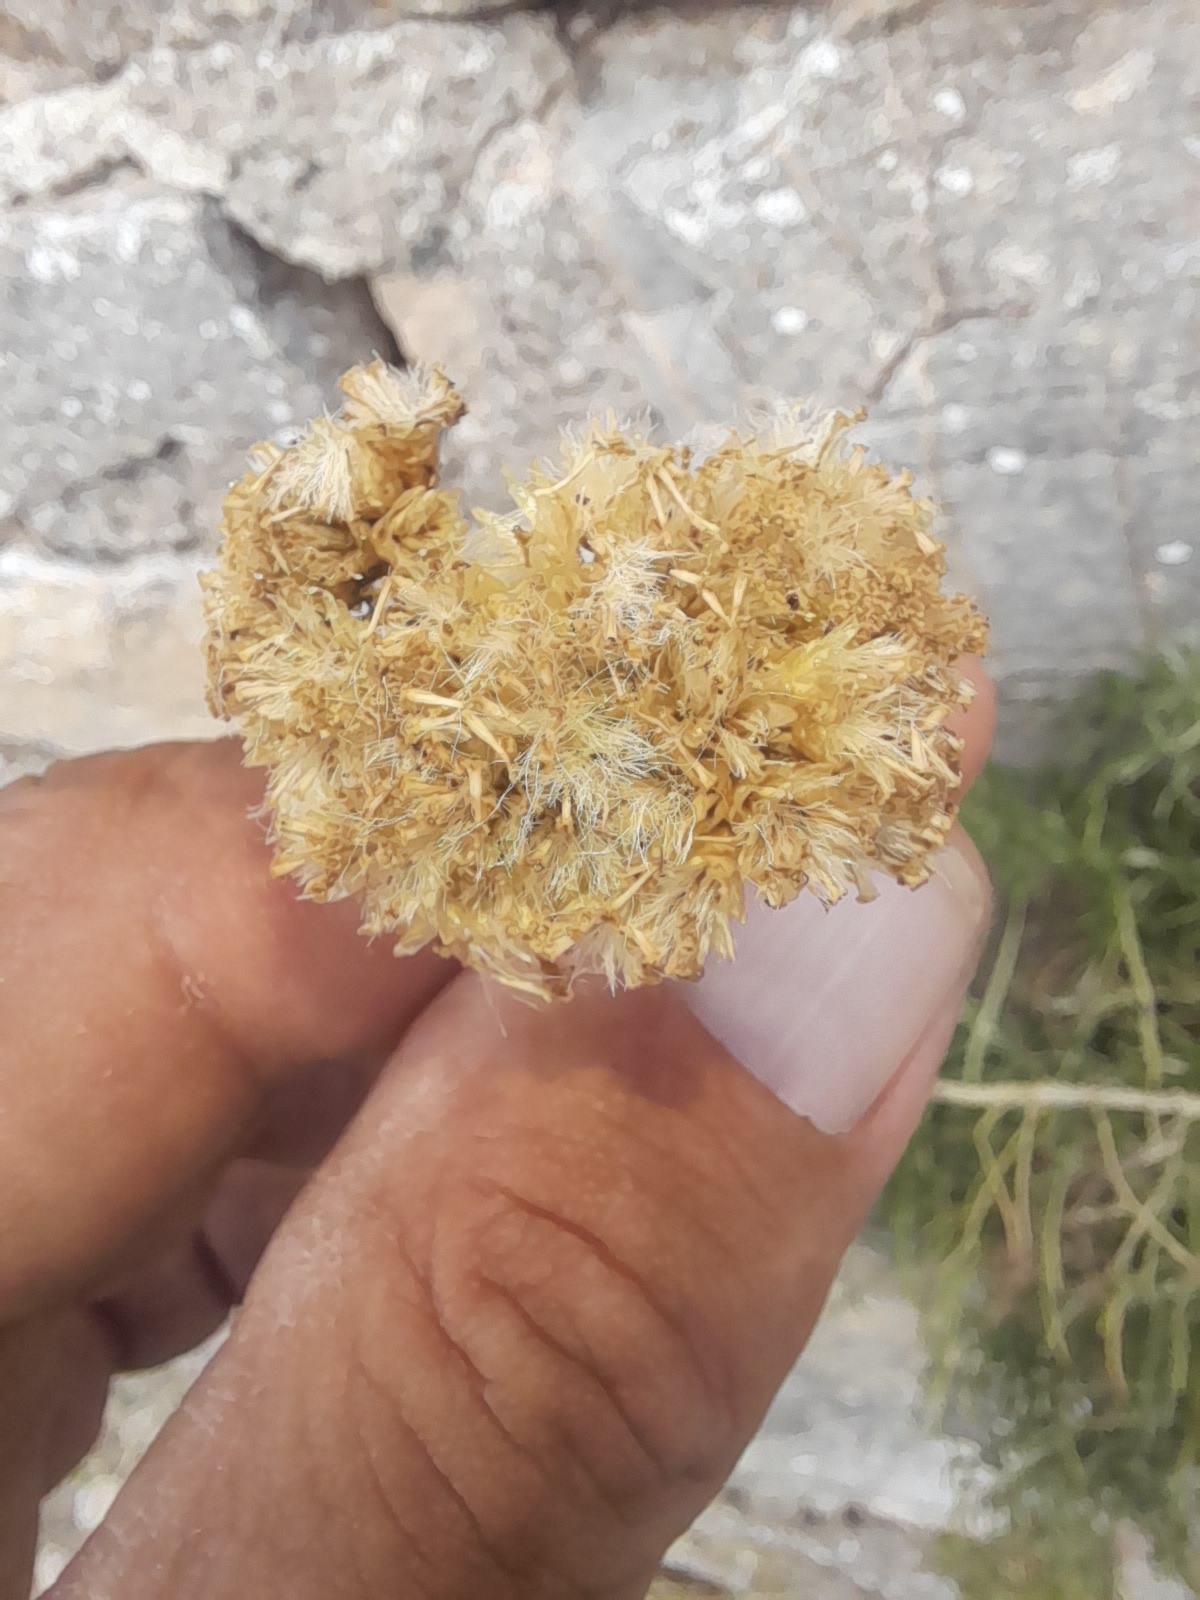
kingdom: Plantae
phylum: Tracheophyta
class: Magnoliopsida
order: Asterales
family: Asteraceae
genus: Helichrysum
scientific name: Helichrysum italicum
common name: Curryplant
